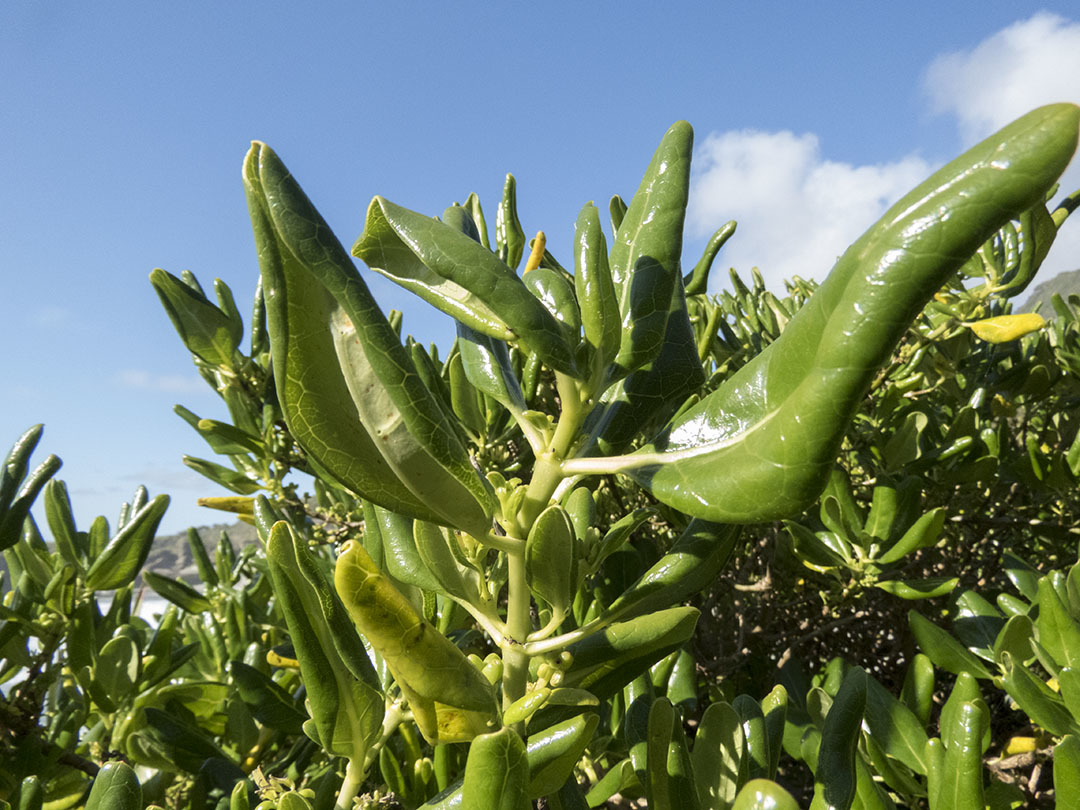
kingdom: Plantae
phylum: Tracheophyta
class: Magnoliopsida
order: Gentianales
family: Rubiaceae
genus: Coprosma
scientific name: Coprosma repens
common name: Tree bedstraw
